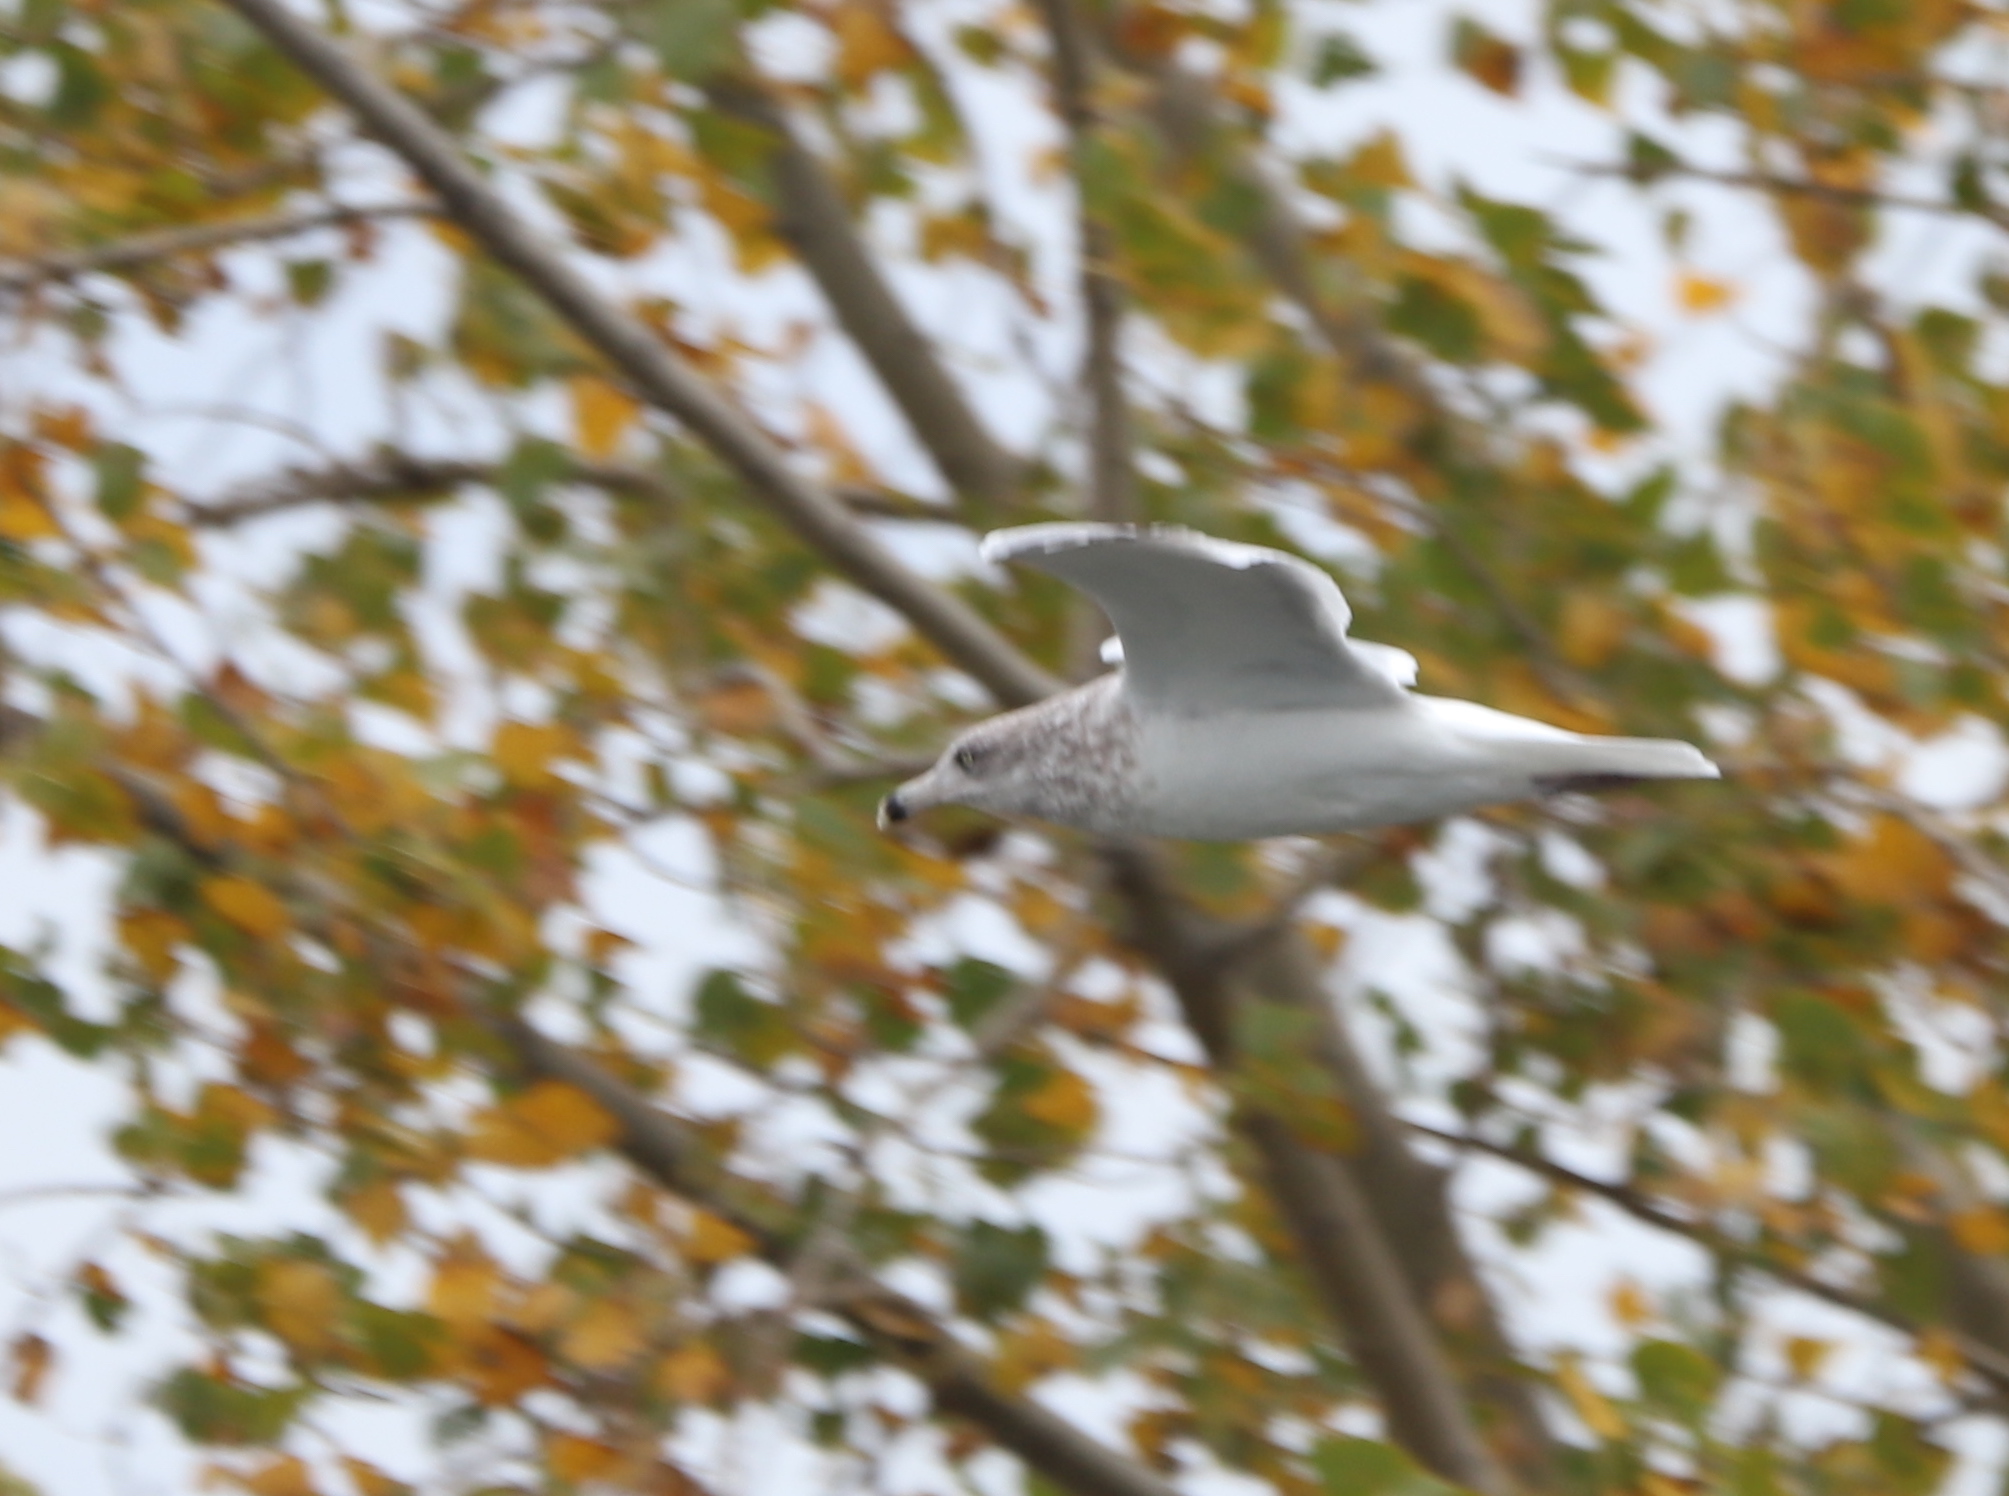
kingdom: Animalia
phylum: Chordata
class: Aves
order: Charadriiformes
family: Laridae
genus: Larus
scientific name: Larus delawarensis
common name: Ring-billed gull
